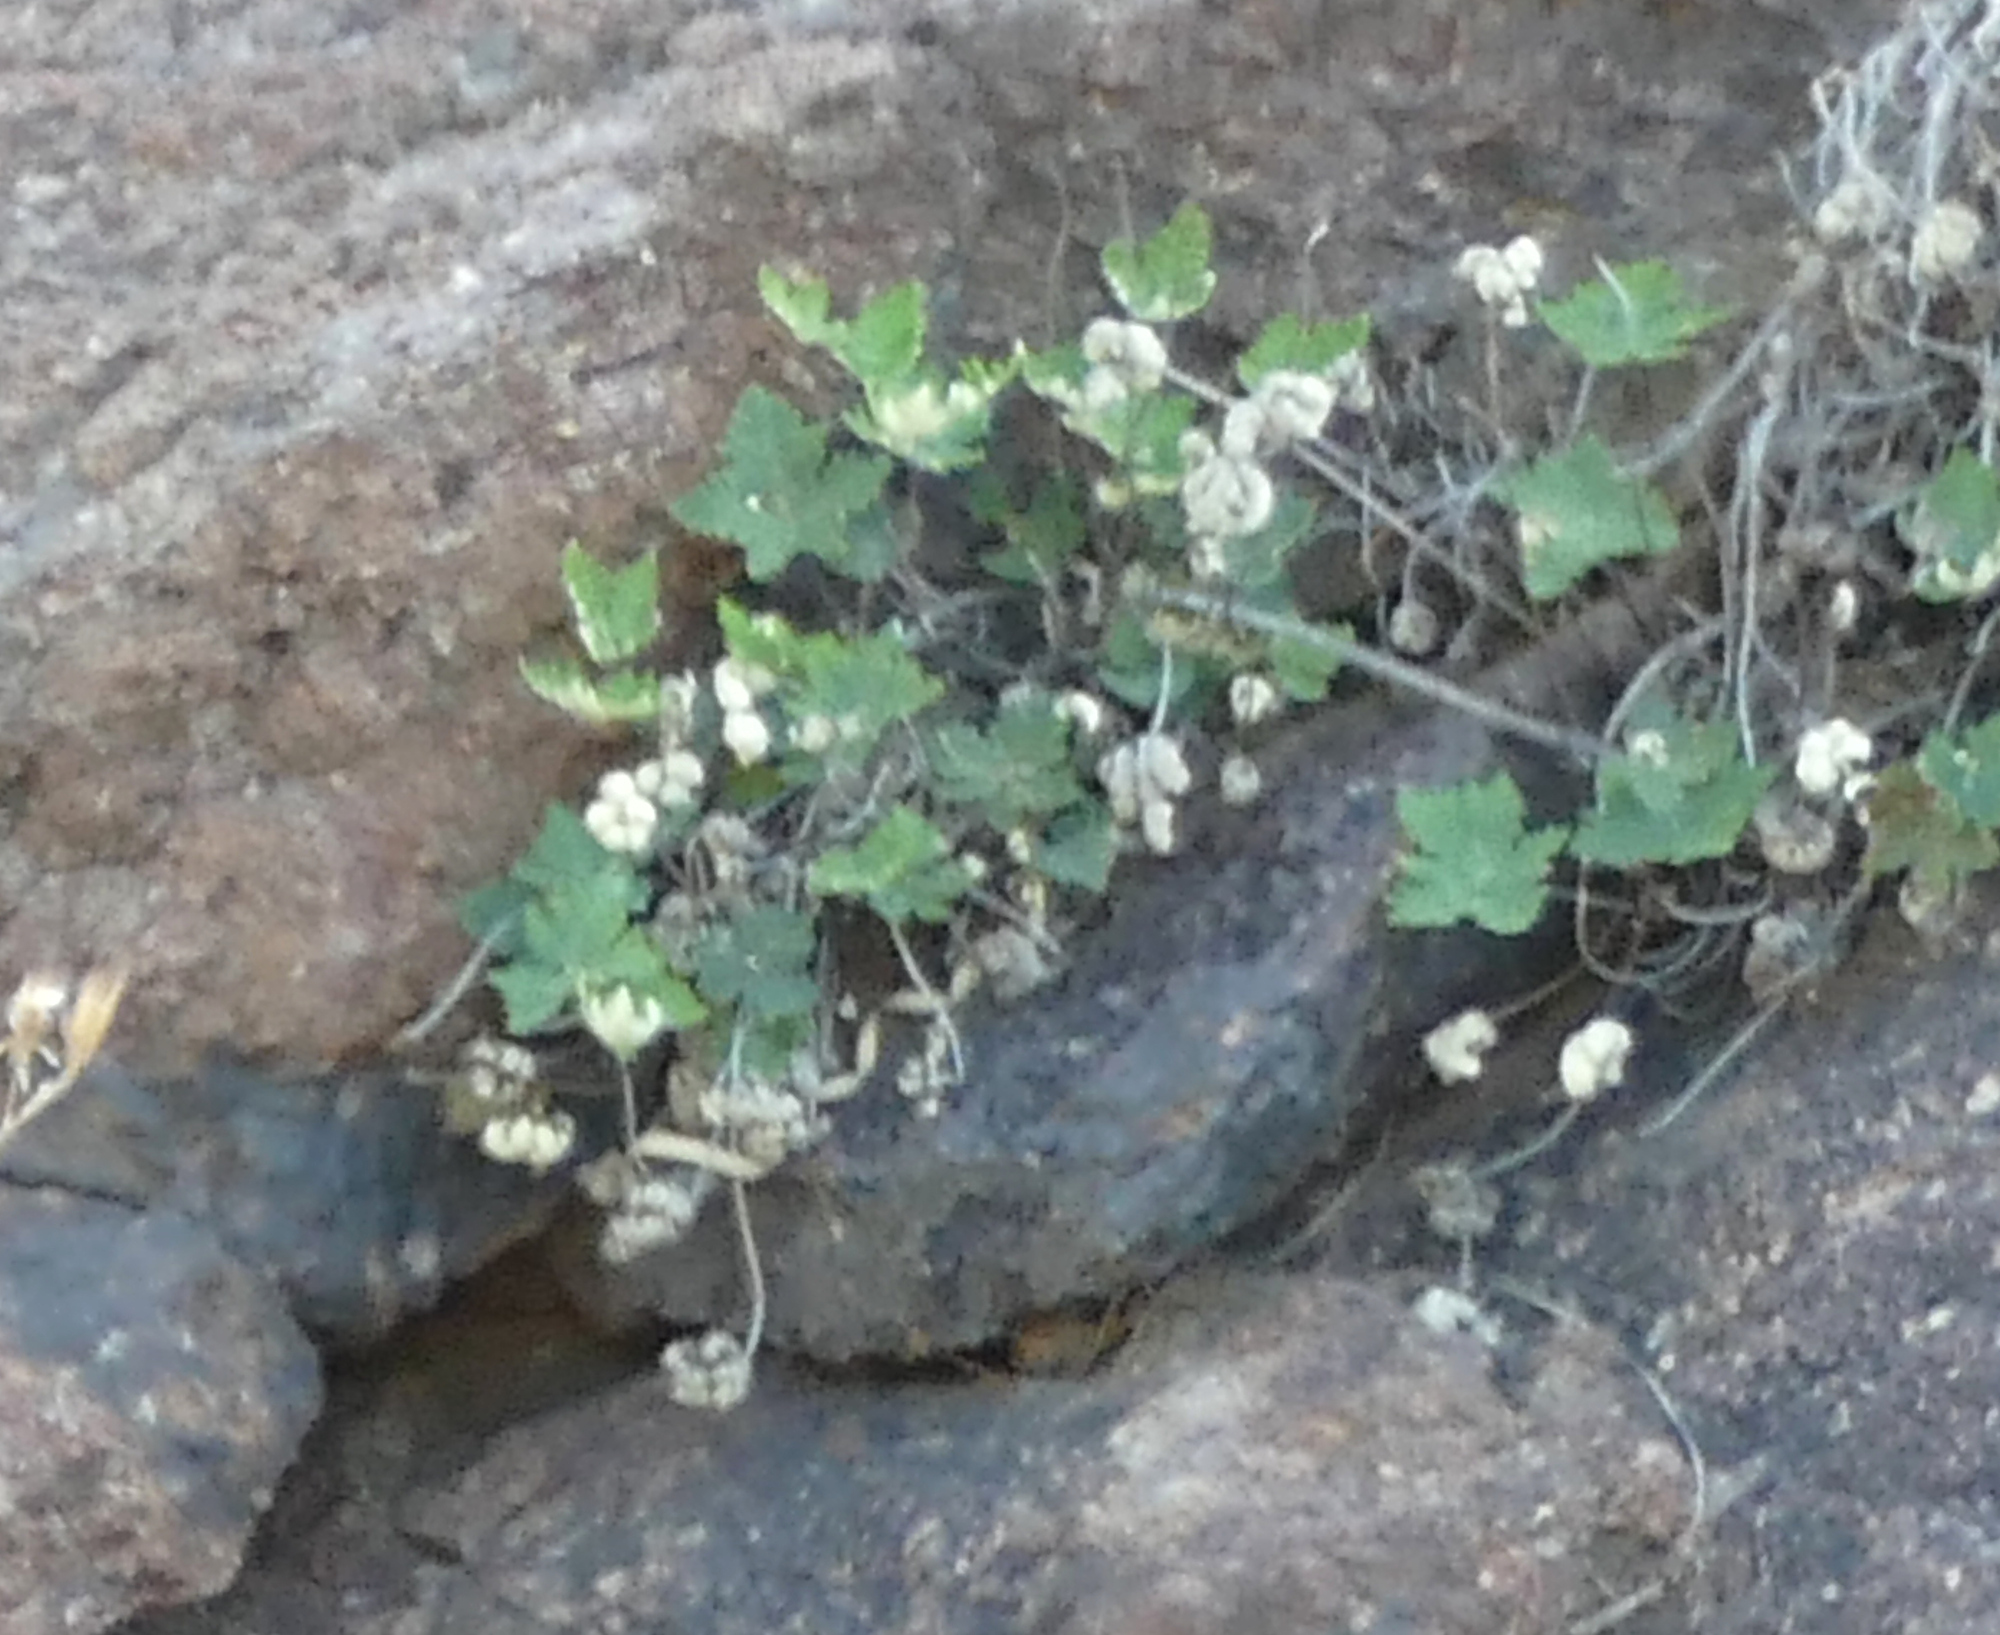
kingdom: Plantae
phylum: Tracheophyta
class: Polypodiopsida
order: Polypodiales
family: Pteridaceae
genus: Notholaena
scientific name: Notholaena standleyi
